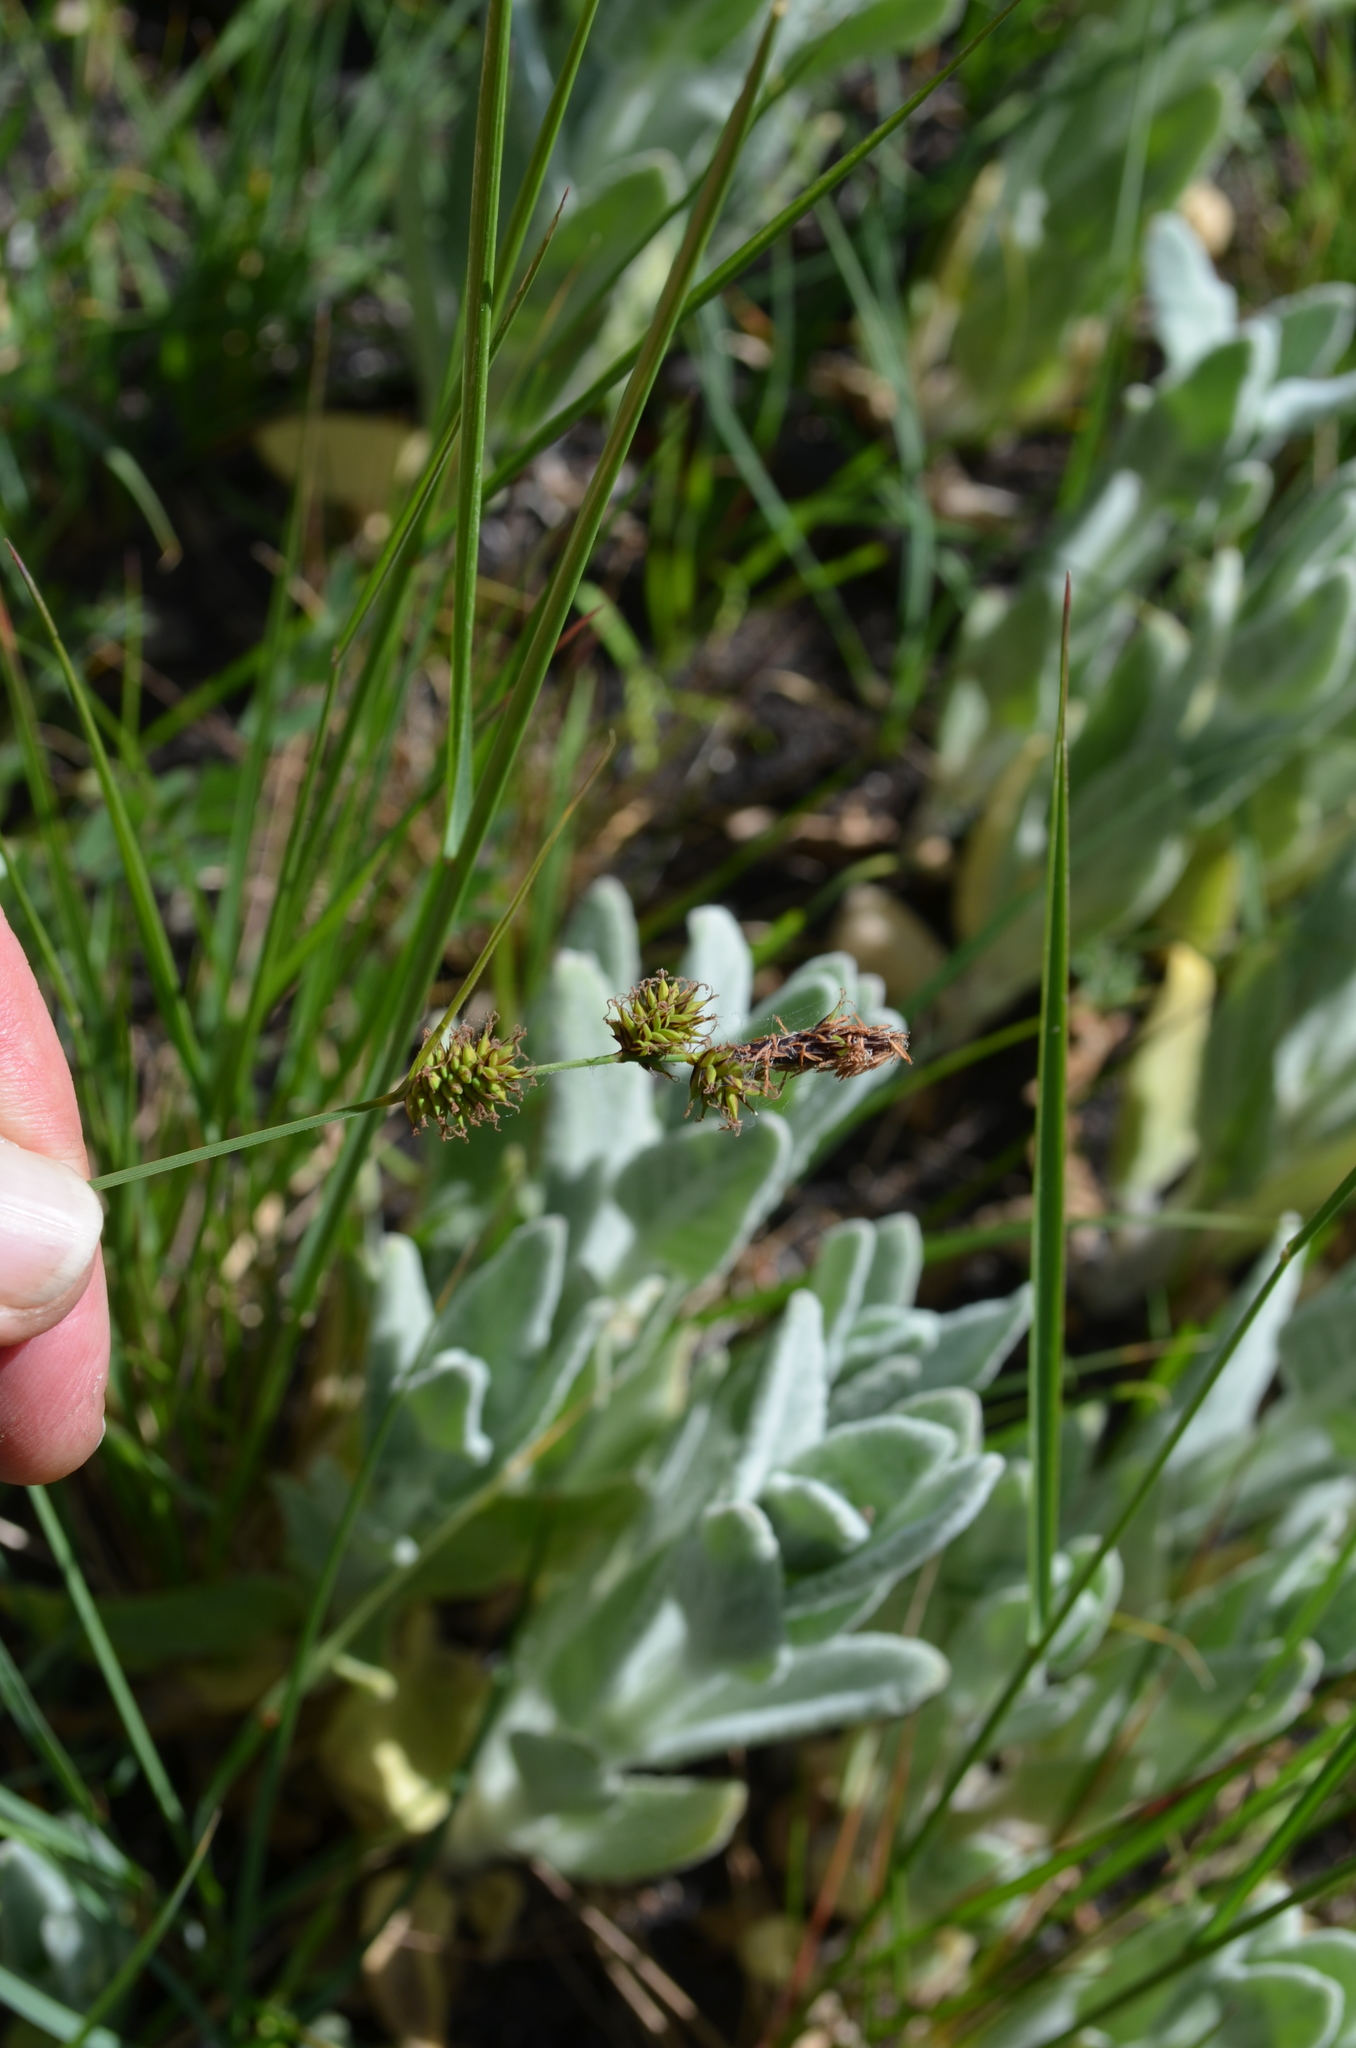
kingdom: Plantae
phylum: Tracheophyta
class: Liliopsida
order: Poales
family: Cyperaceae
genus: Carex
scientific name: Carex serratodens
